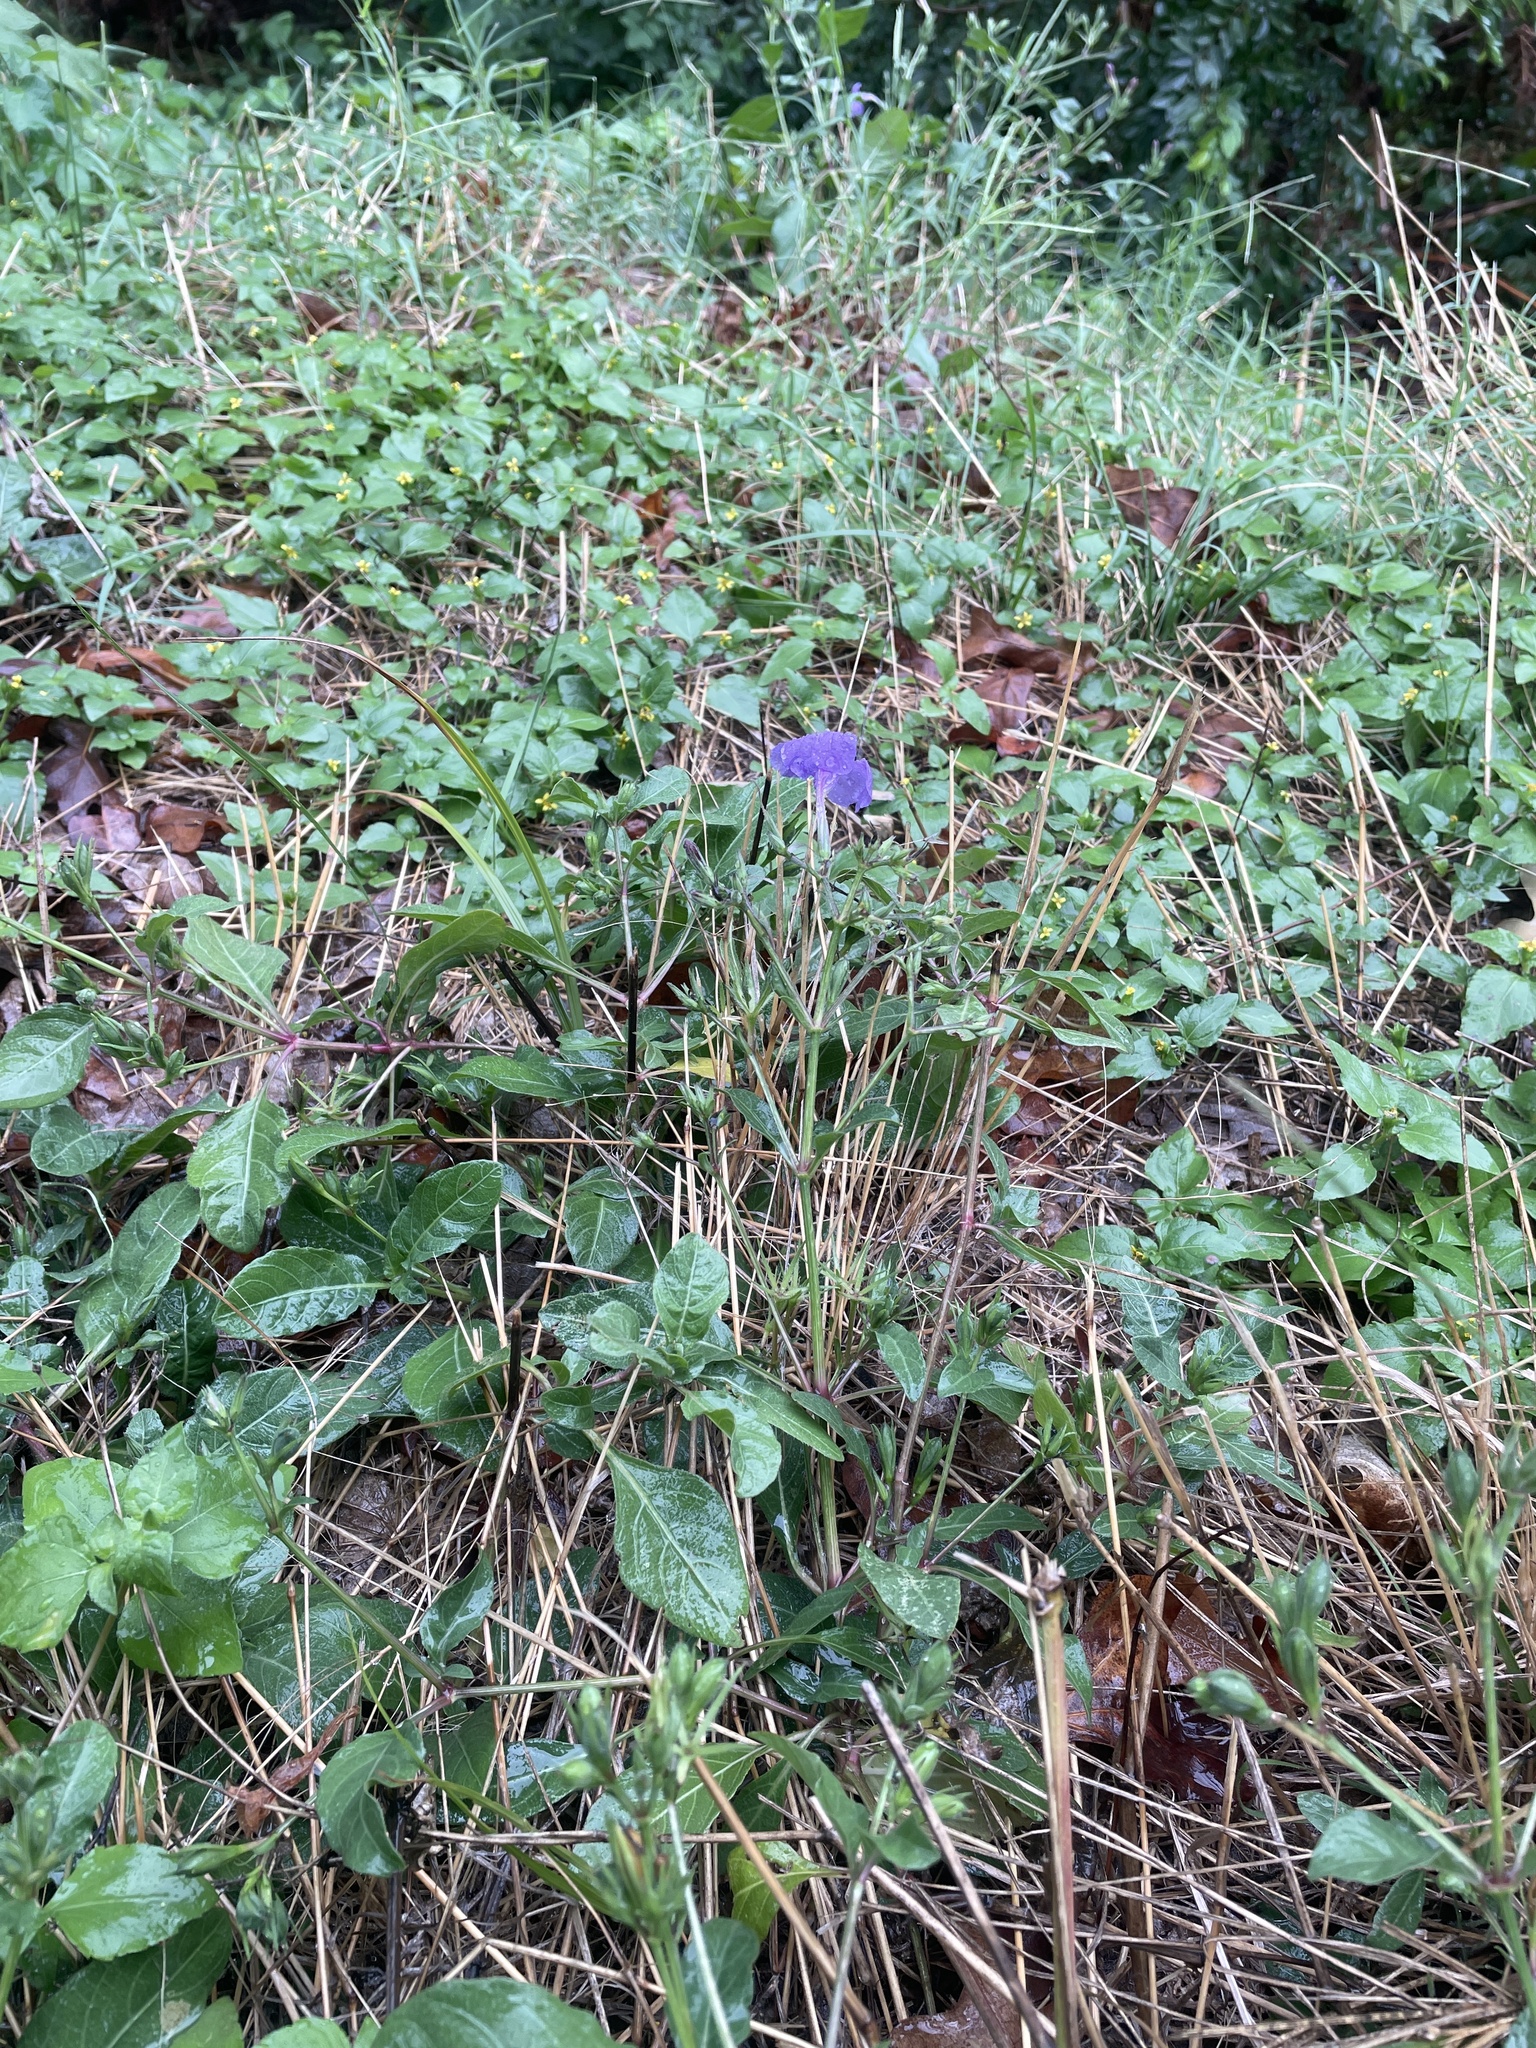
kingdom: Plantae
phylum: Tracheophyta
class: Magnoliopsida
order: Lamiales
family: Acanthaceae
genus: Ruellia
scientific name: Ruellia ciliatiflora
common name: Hairyflower wild petunia
